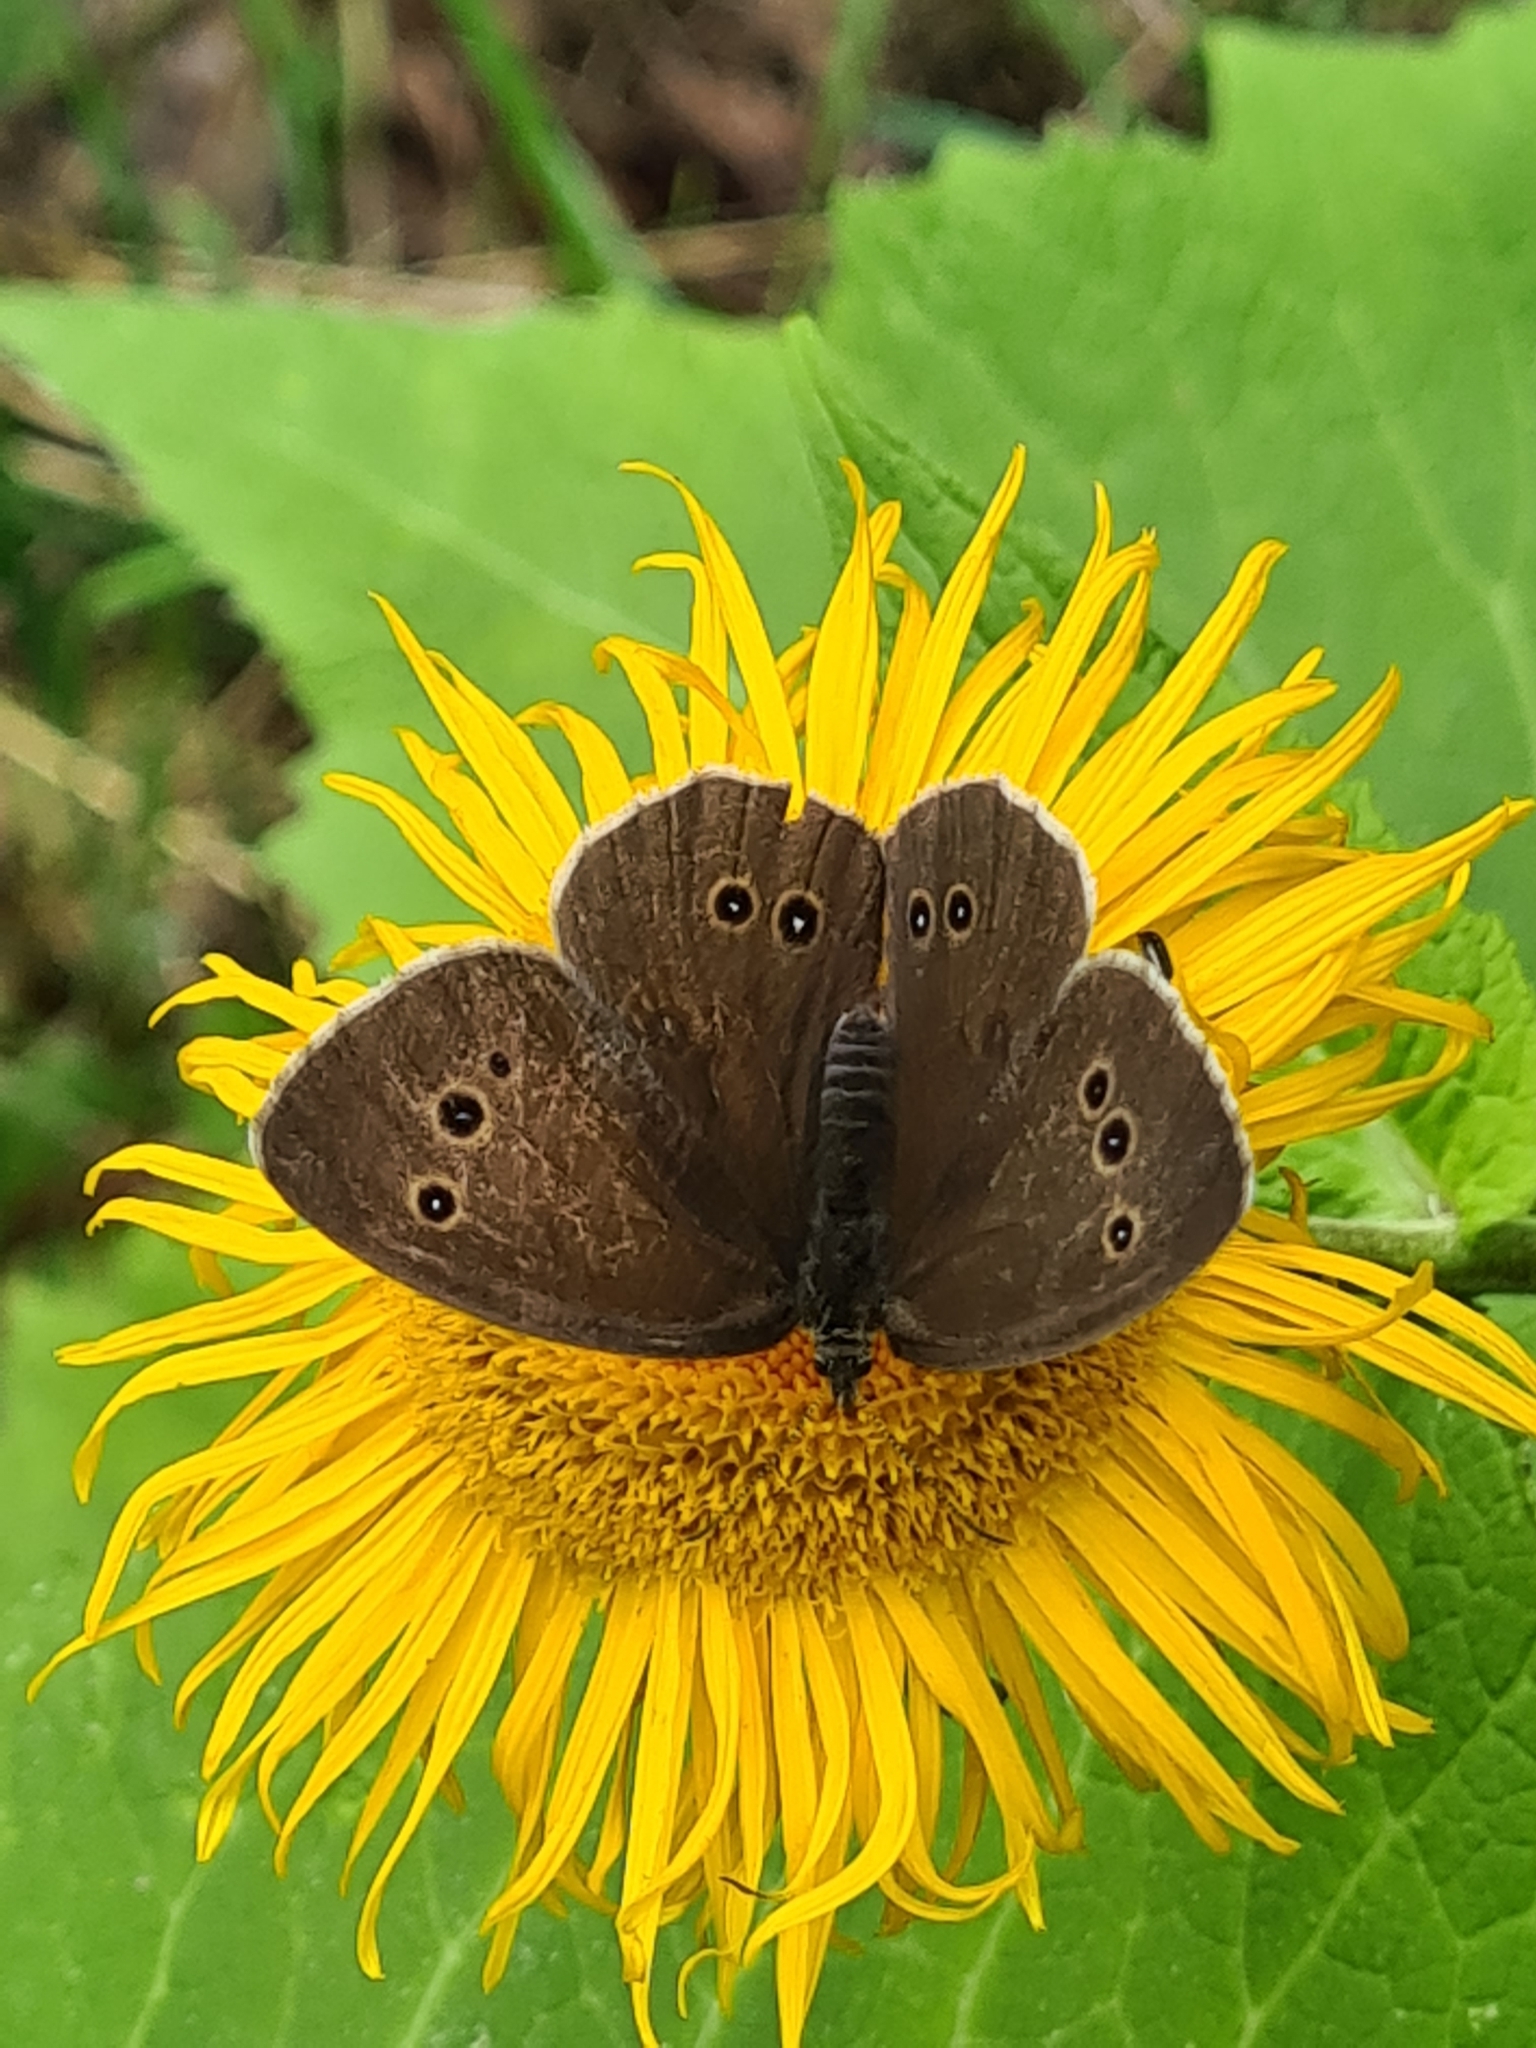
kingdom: Animalia
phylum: Arthropoda
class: Insecta
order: Lepidoptera
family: Nymphalidae
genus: Aphantopus
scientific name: Aphantopus hyperantus
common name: Ringlet
